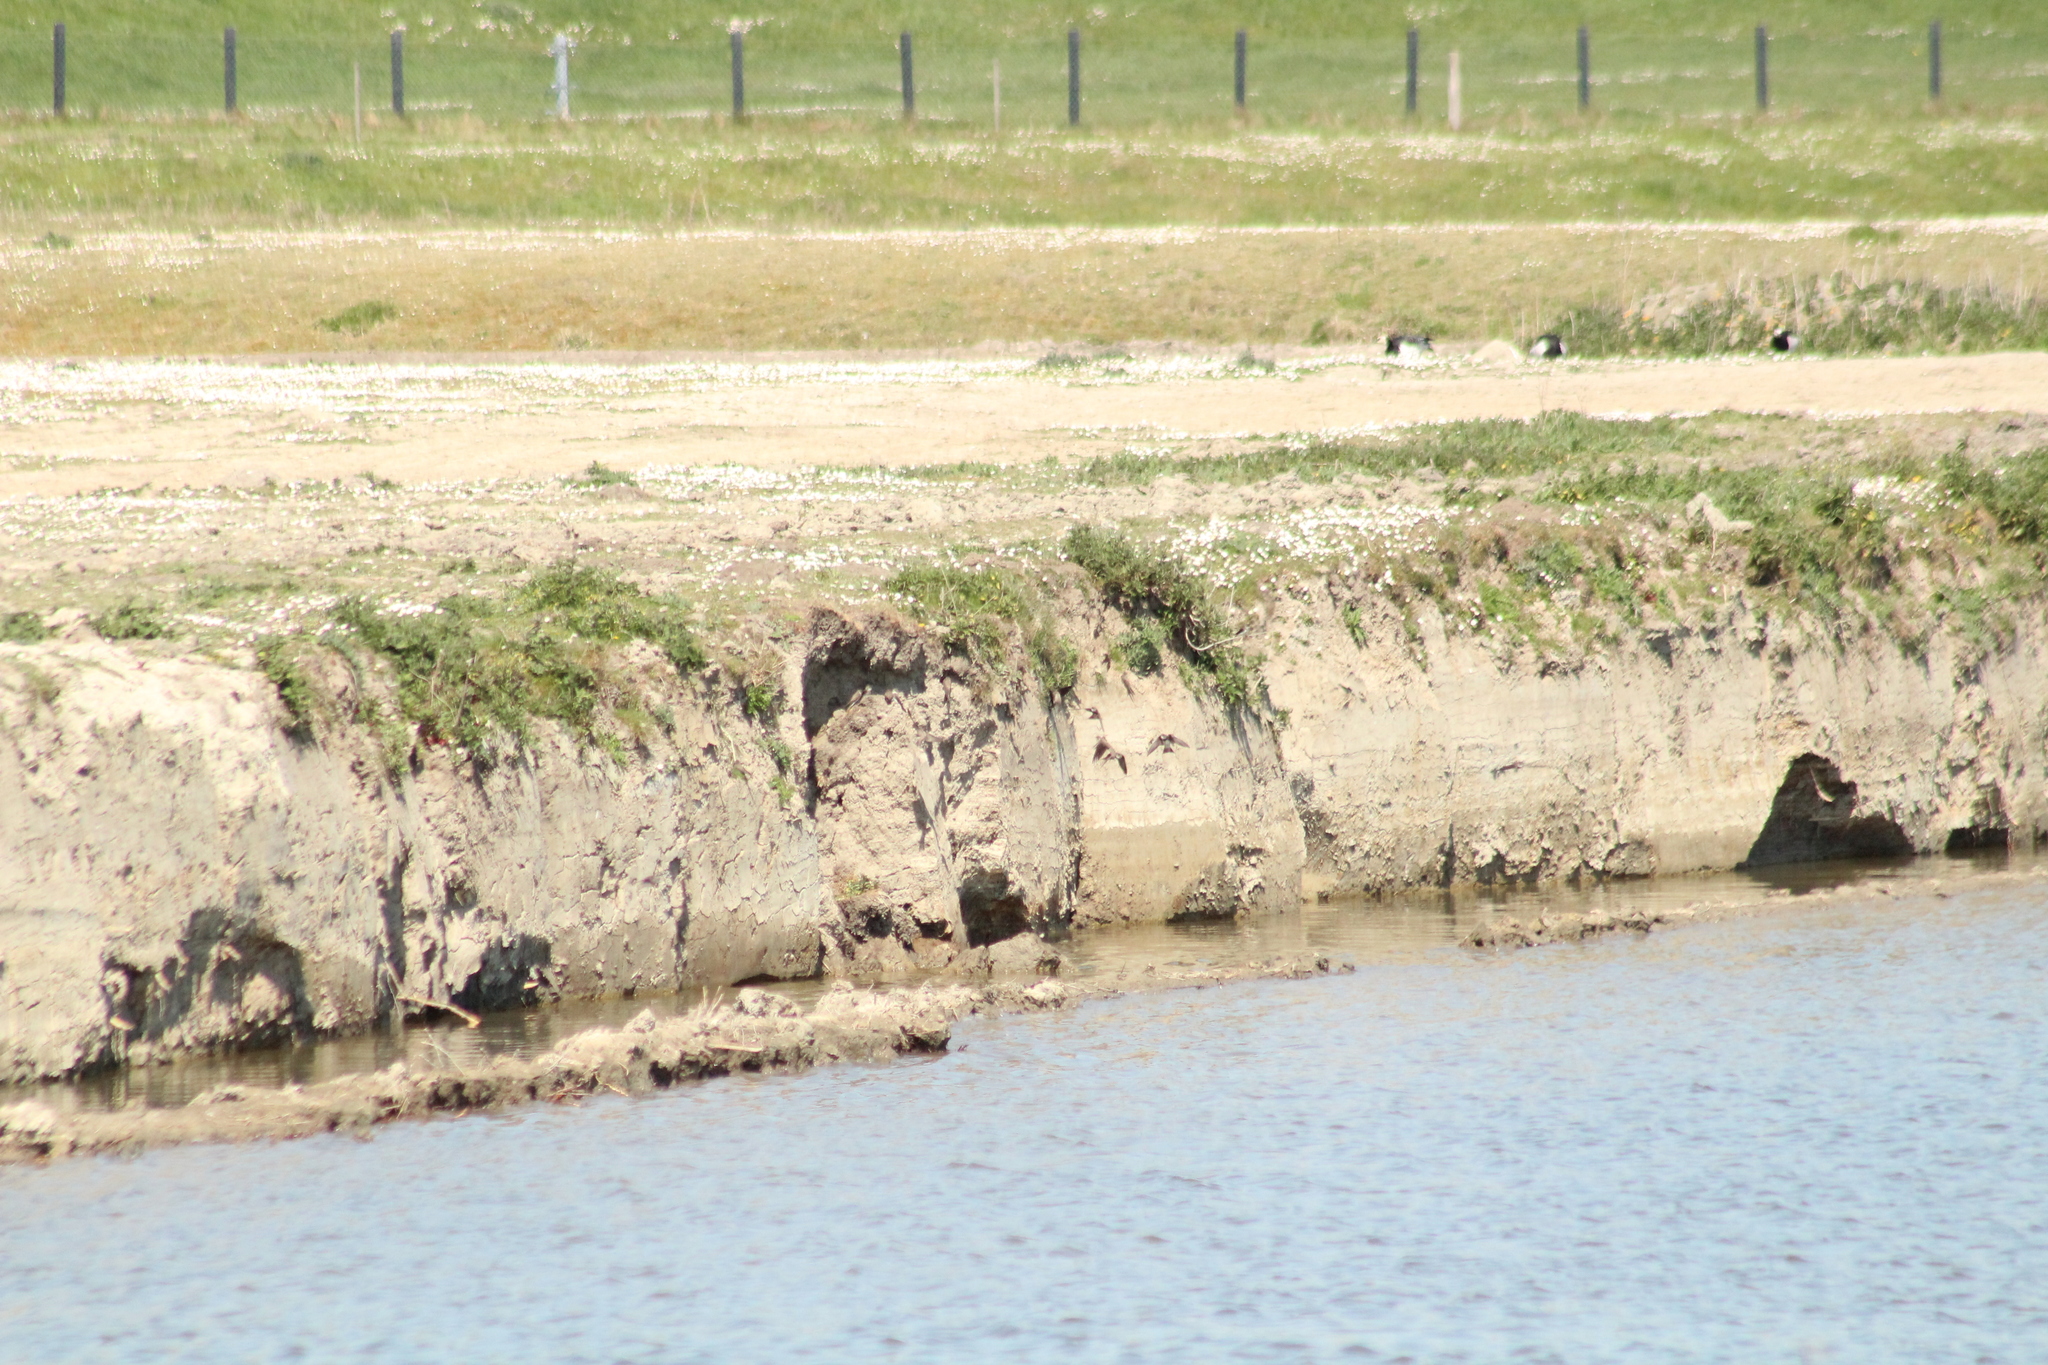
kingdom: Animalia
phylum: Chordata
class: Aves
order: Passeriformes
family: Hirundinidae
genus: Riparia
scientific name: Riparia riparia
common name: Sand martin
